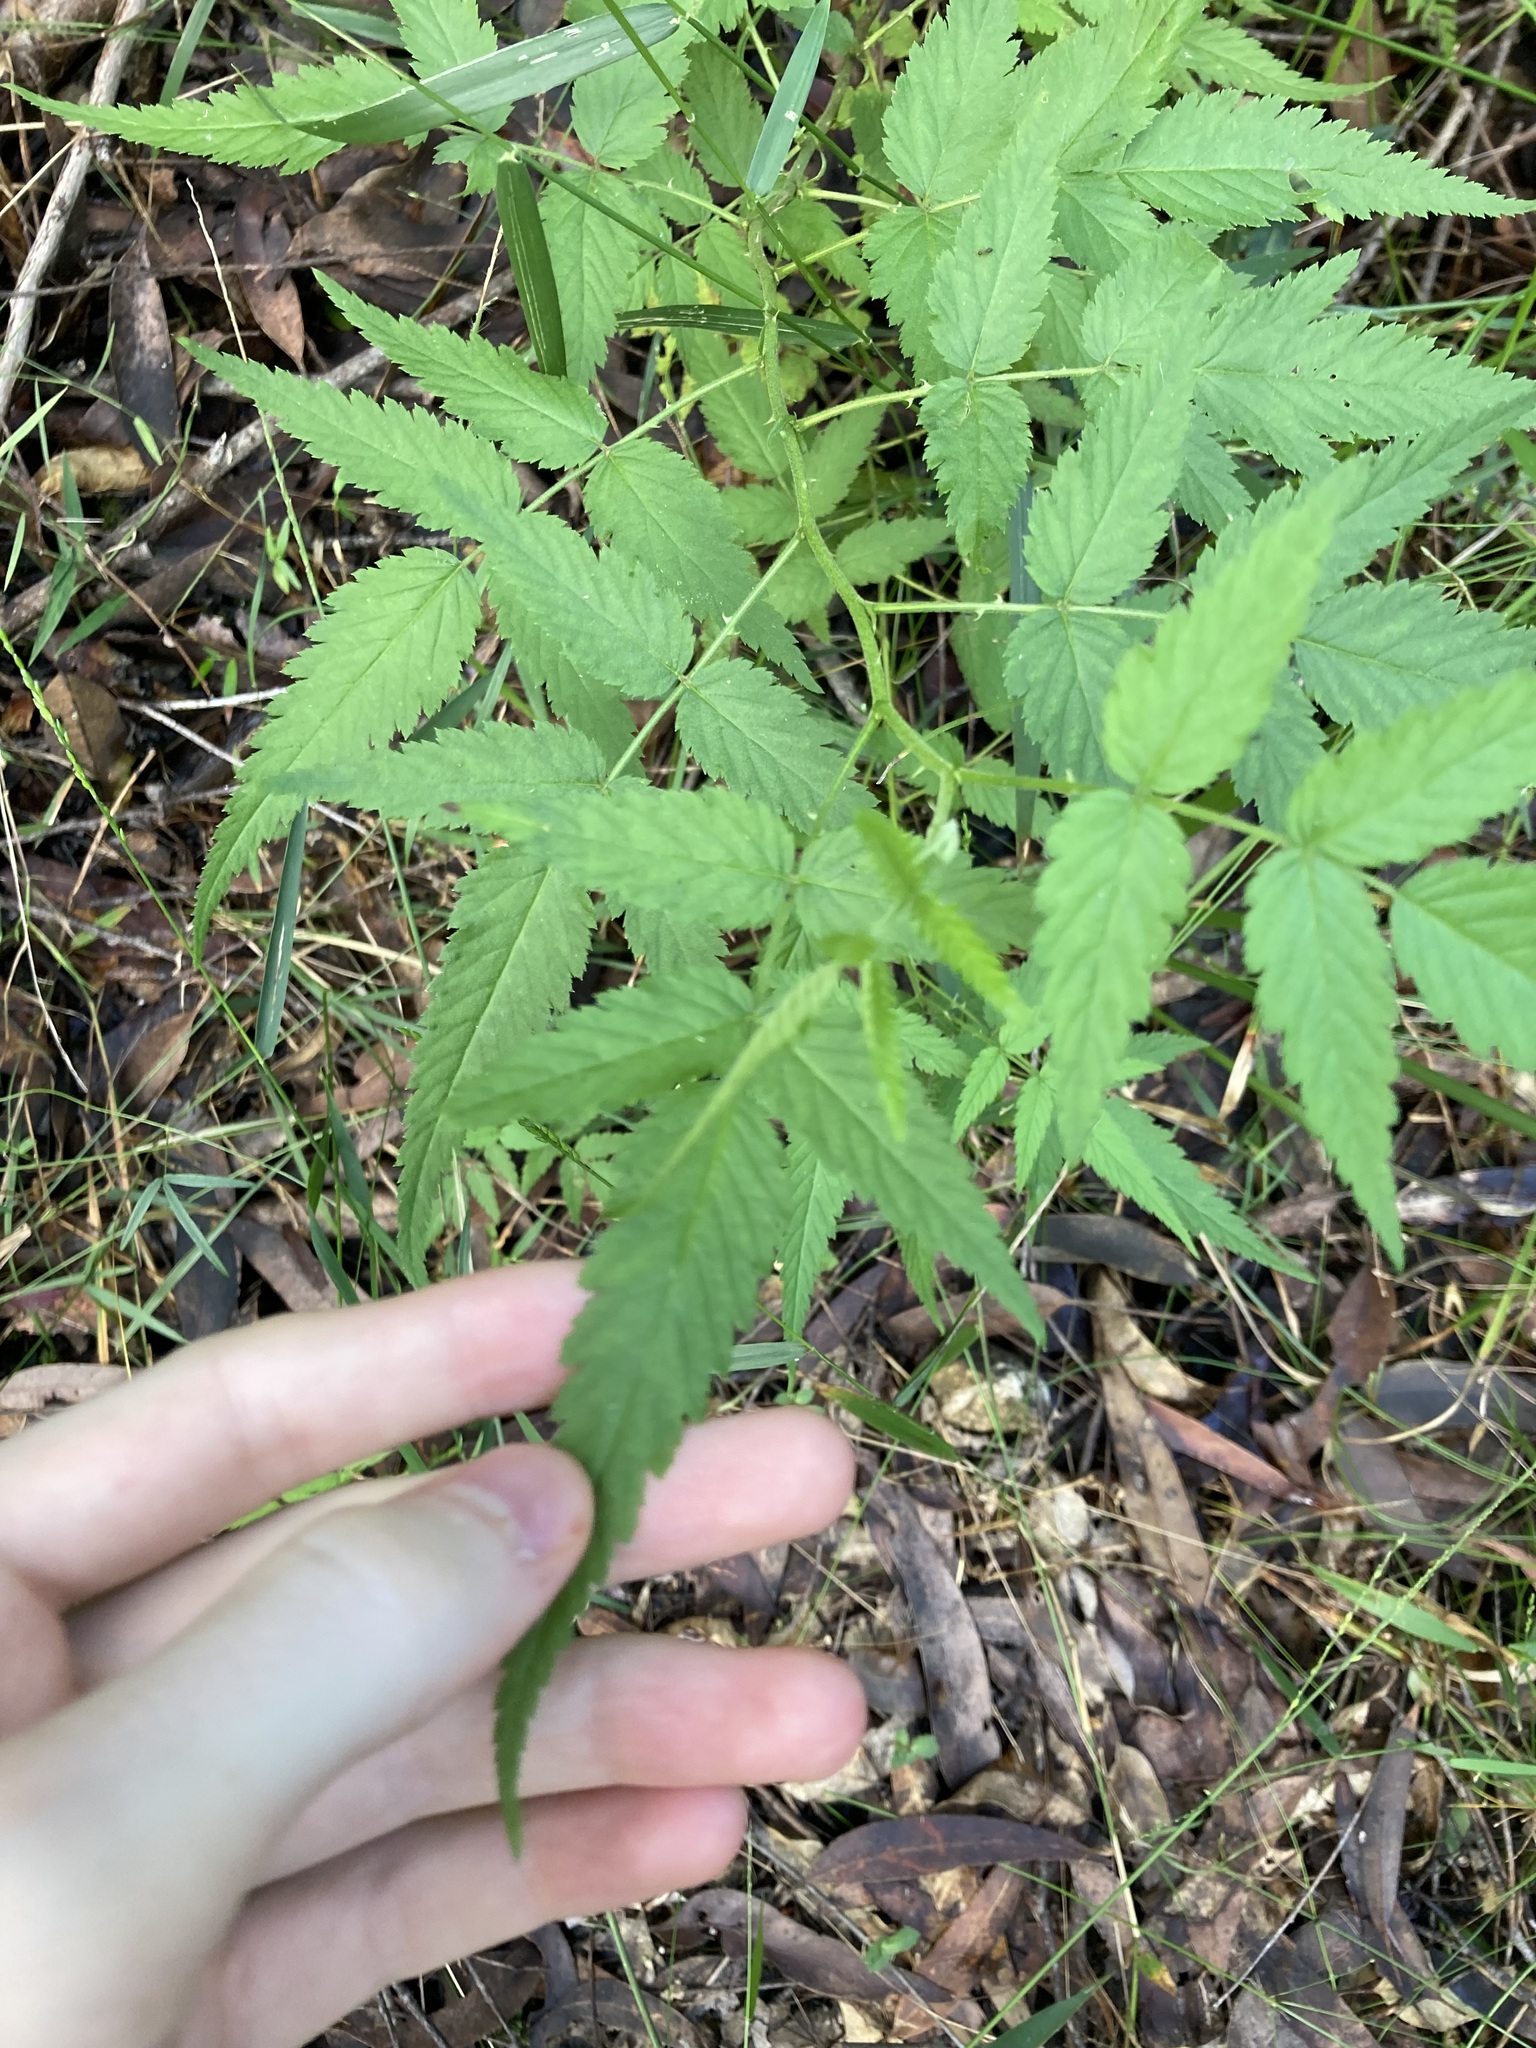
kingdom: Plantae
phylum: Tracheophyta
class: Magnoliopsida
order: Rosales
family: Rosaceae
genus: Rubus
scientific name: Rubus rosifolius
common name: Roseleaf raspberry
